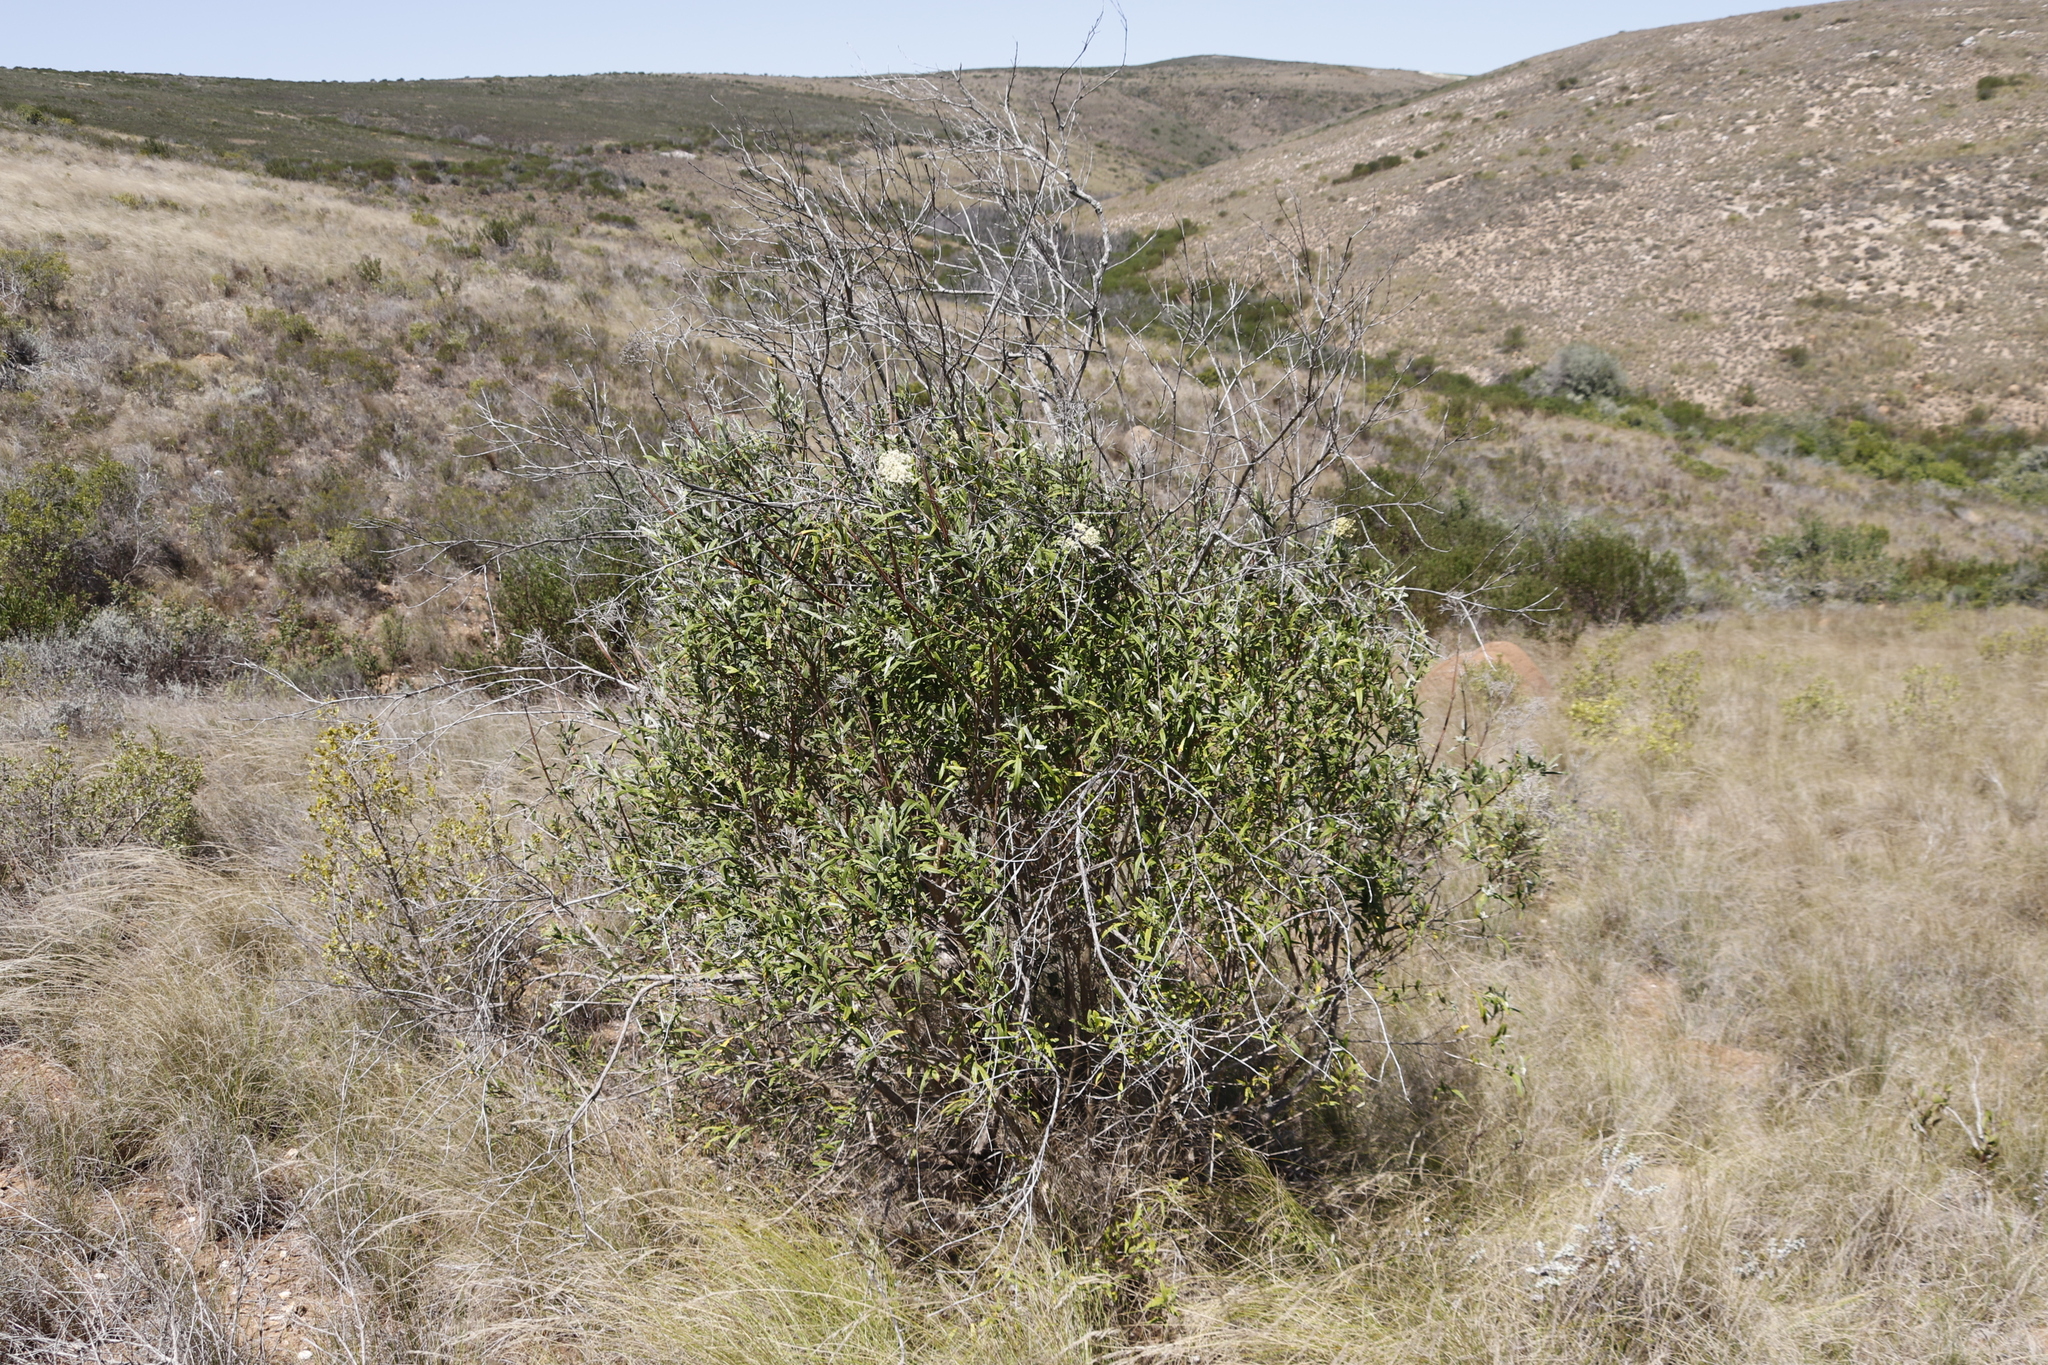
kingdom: Plantae
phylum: Tracheophyta
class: Magnoliopsida
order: Lamiales
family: Scrophulariaceae
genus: Buddleja
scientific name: Buddleja saligna
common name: False olive
